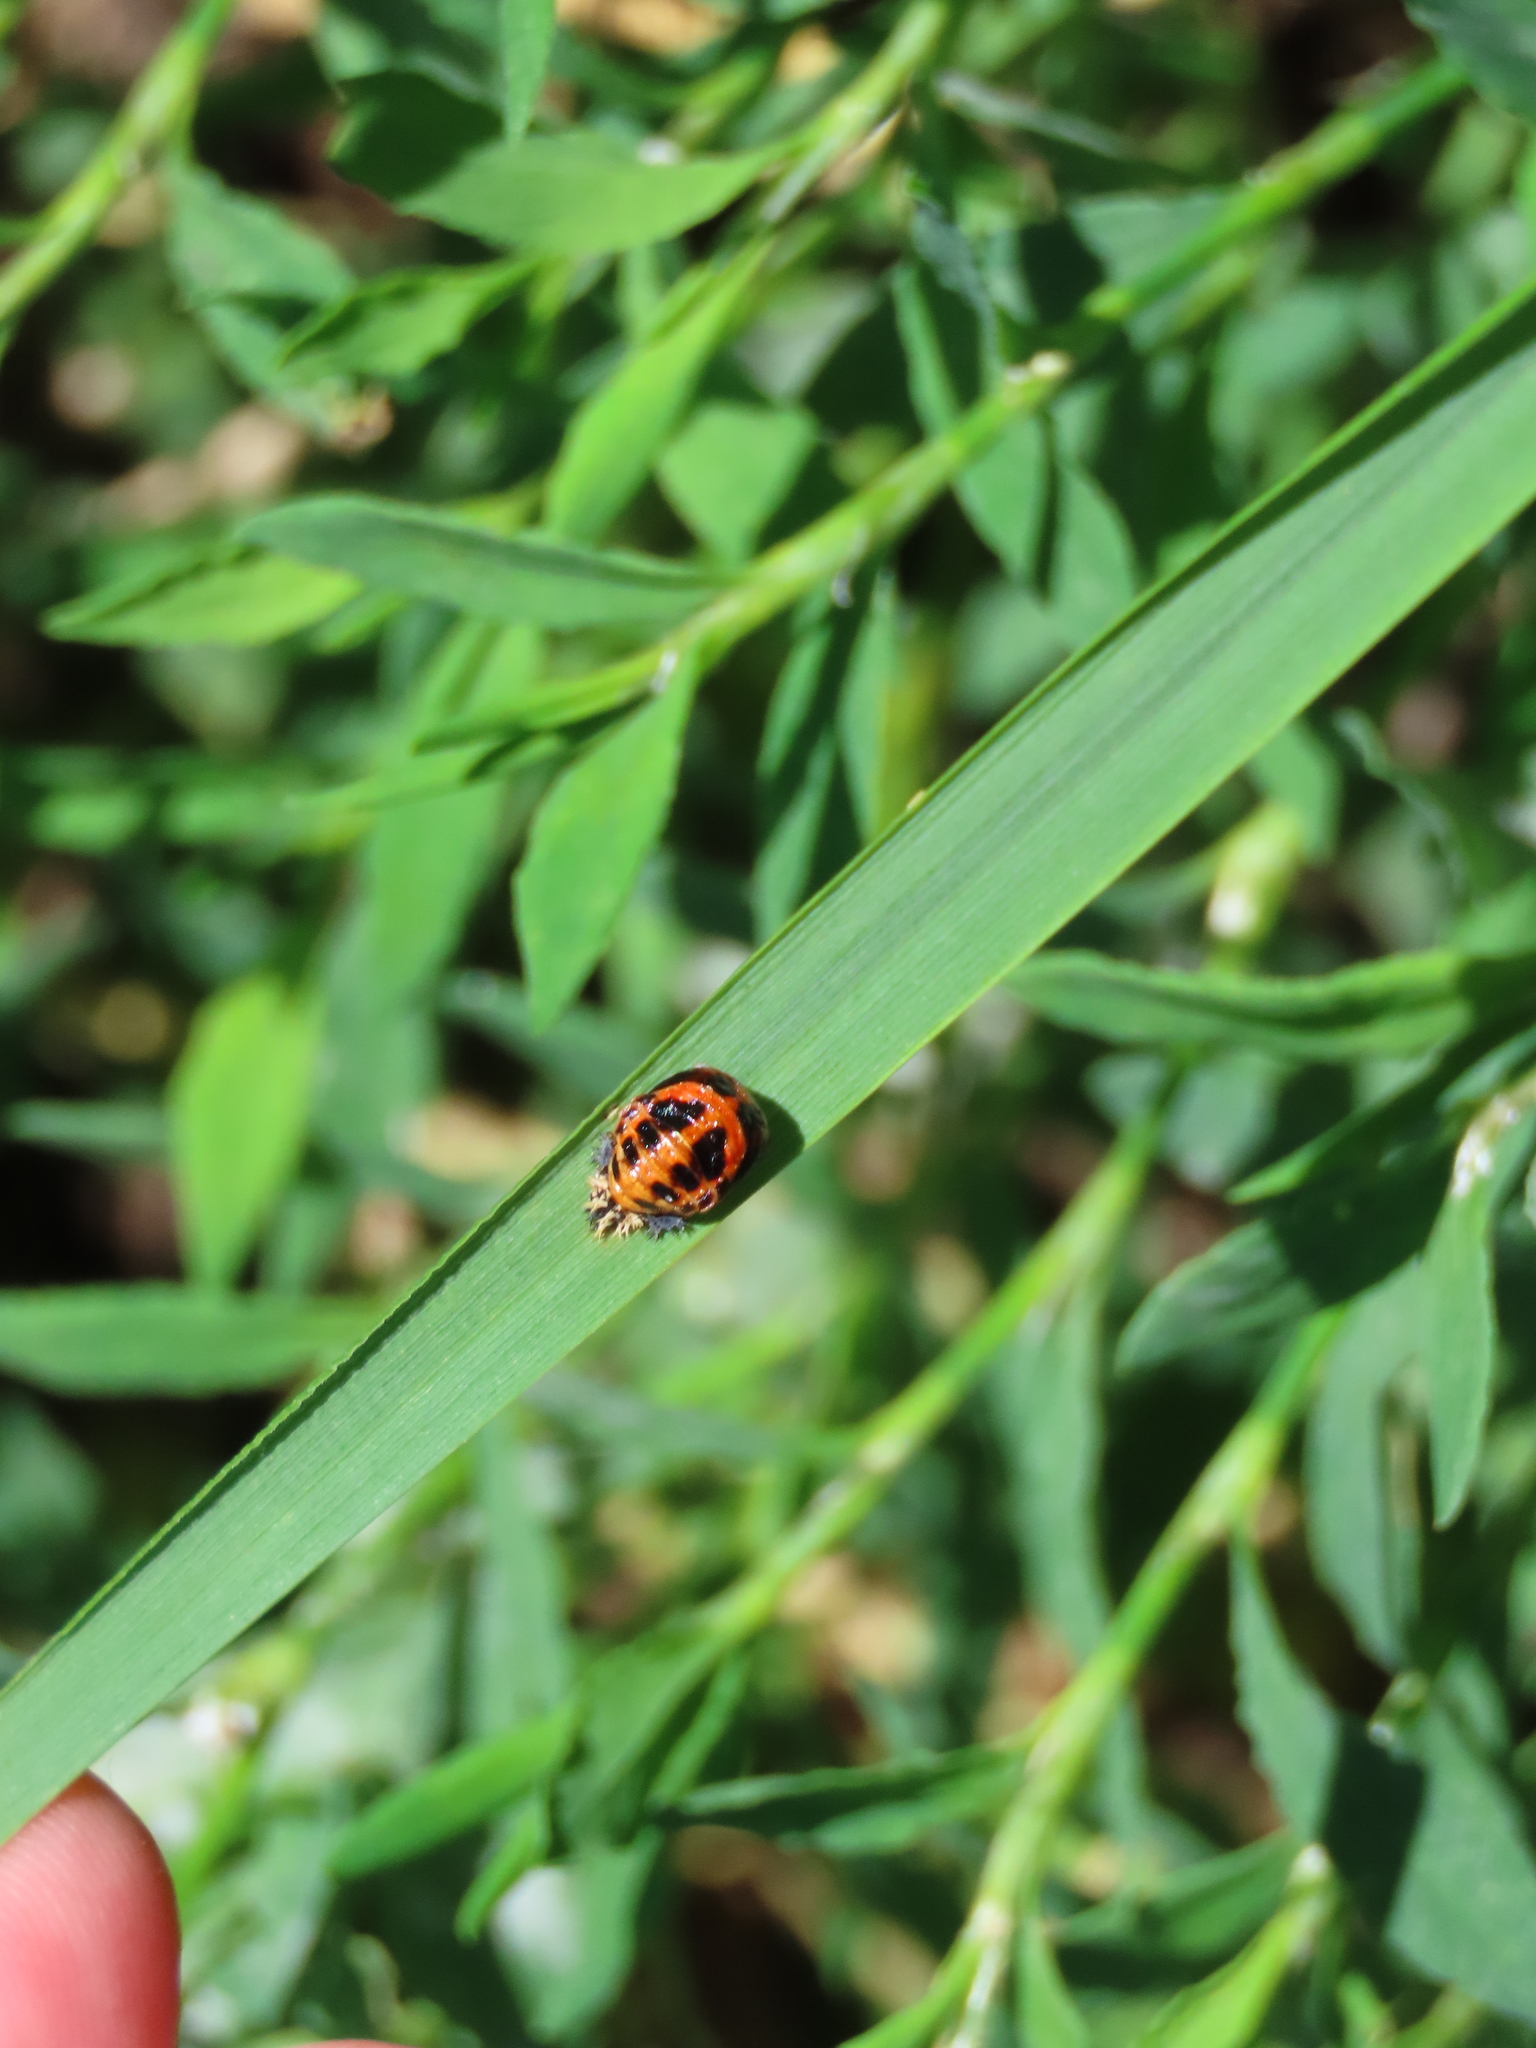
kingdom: Animalia
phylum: Arthropoda
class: Insecta
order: Coleoptera
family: Coccinellidae
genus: Harmonia
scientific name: Harmonia axyridis
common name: Harlequin ladybird
